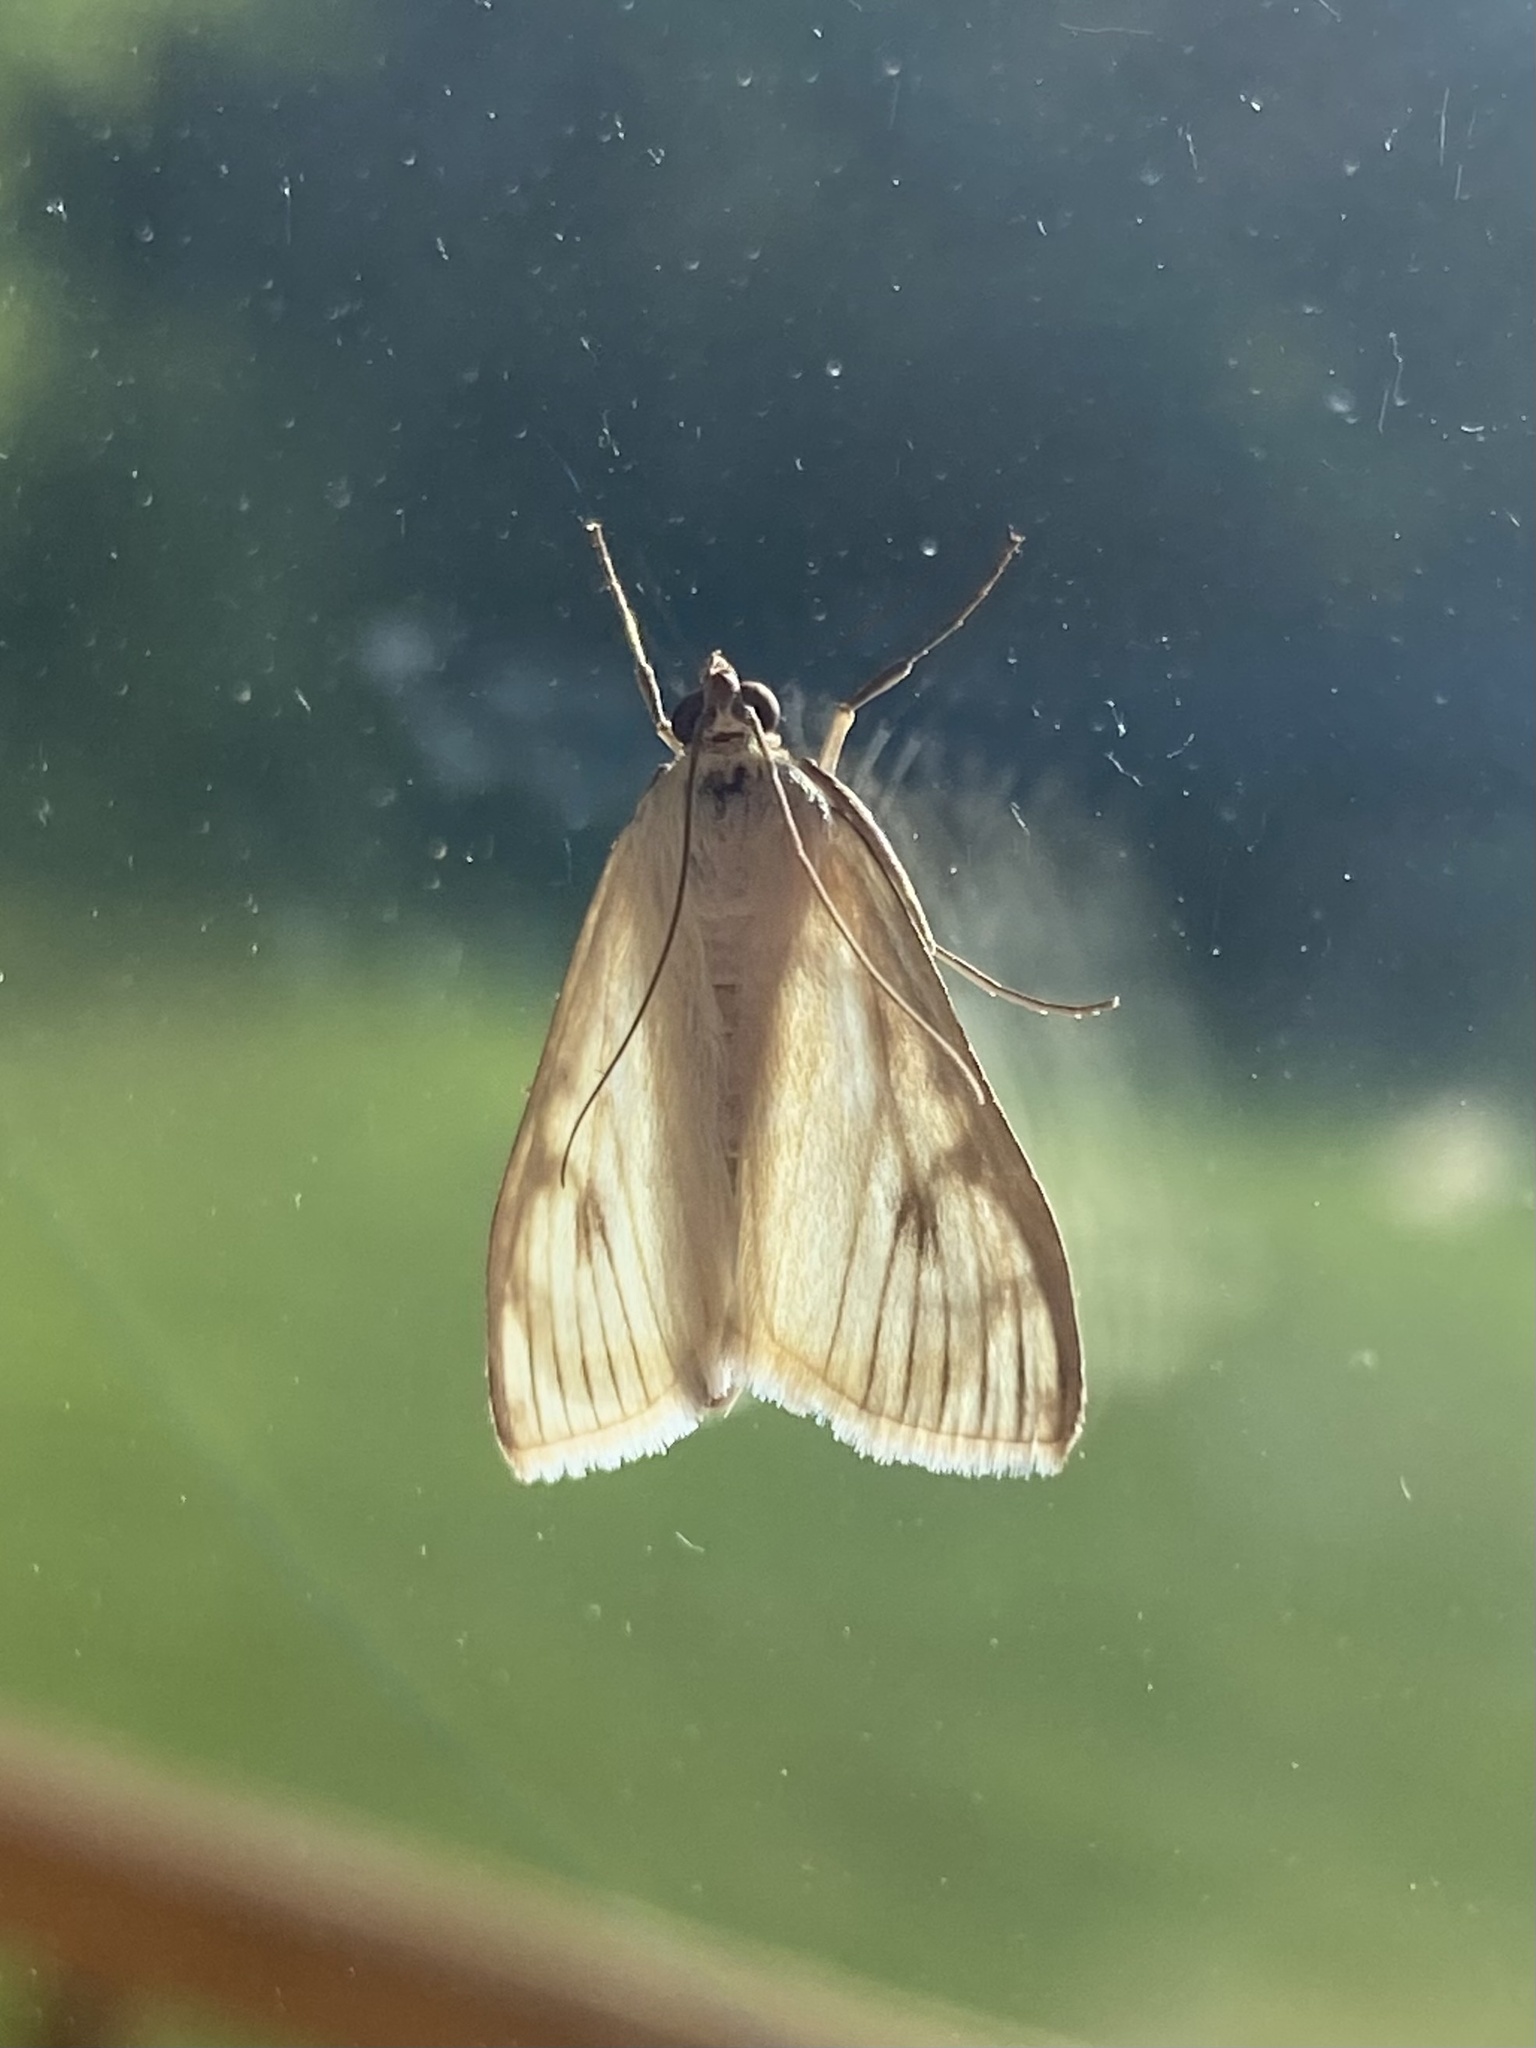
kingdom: Animalia
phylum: Arthropoda
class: Insecta
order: Lepidoptera
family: Crambidae
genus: Sitochroa
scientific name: Sitochroa palealis
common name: Greenish-yellow sitochroa moth
